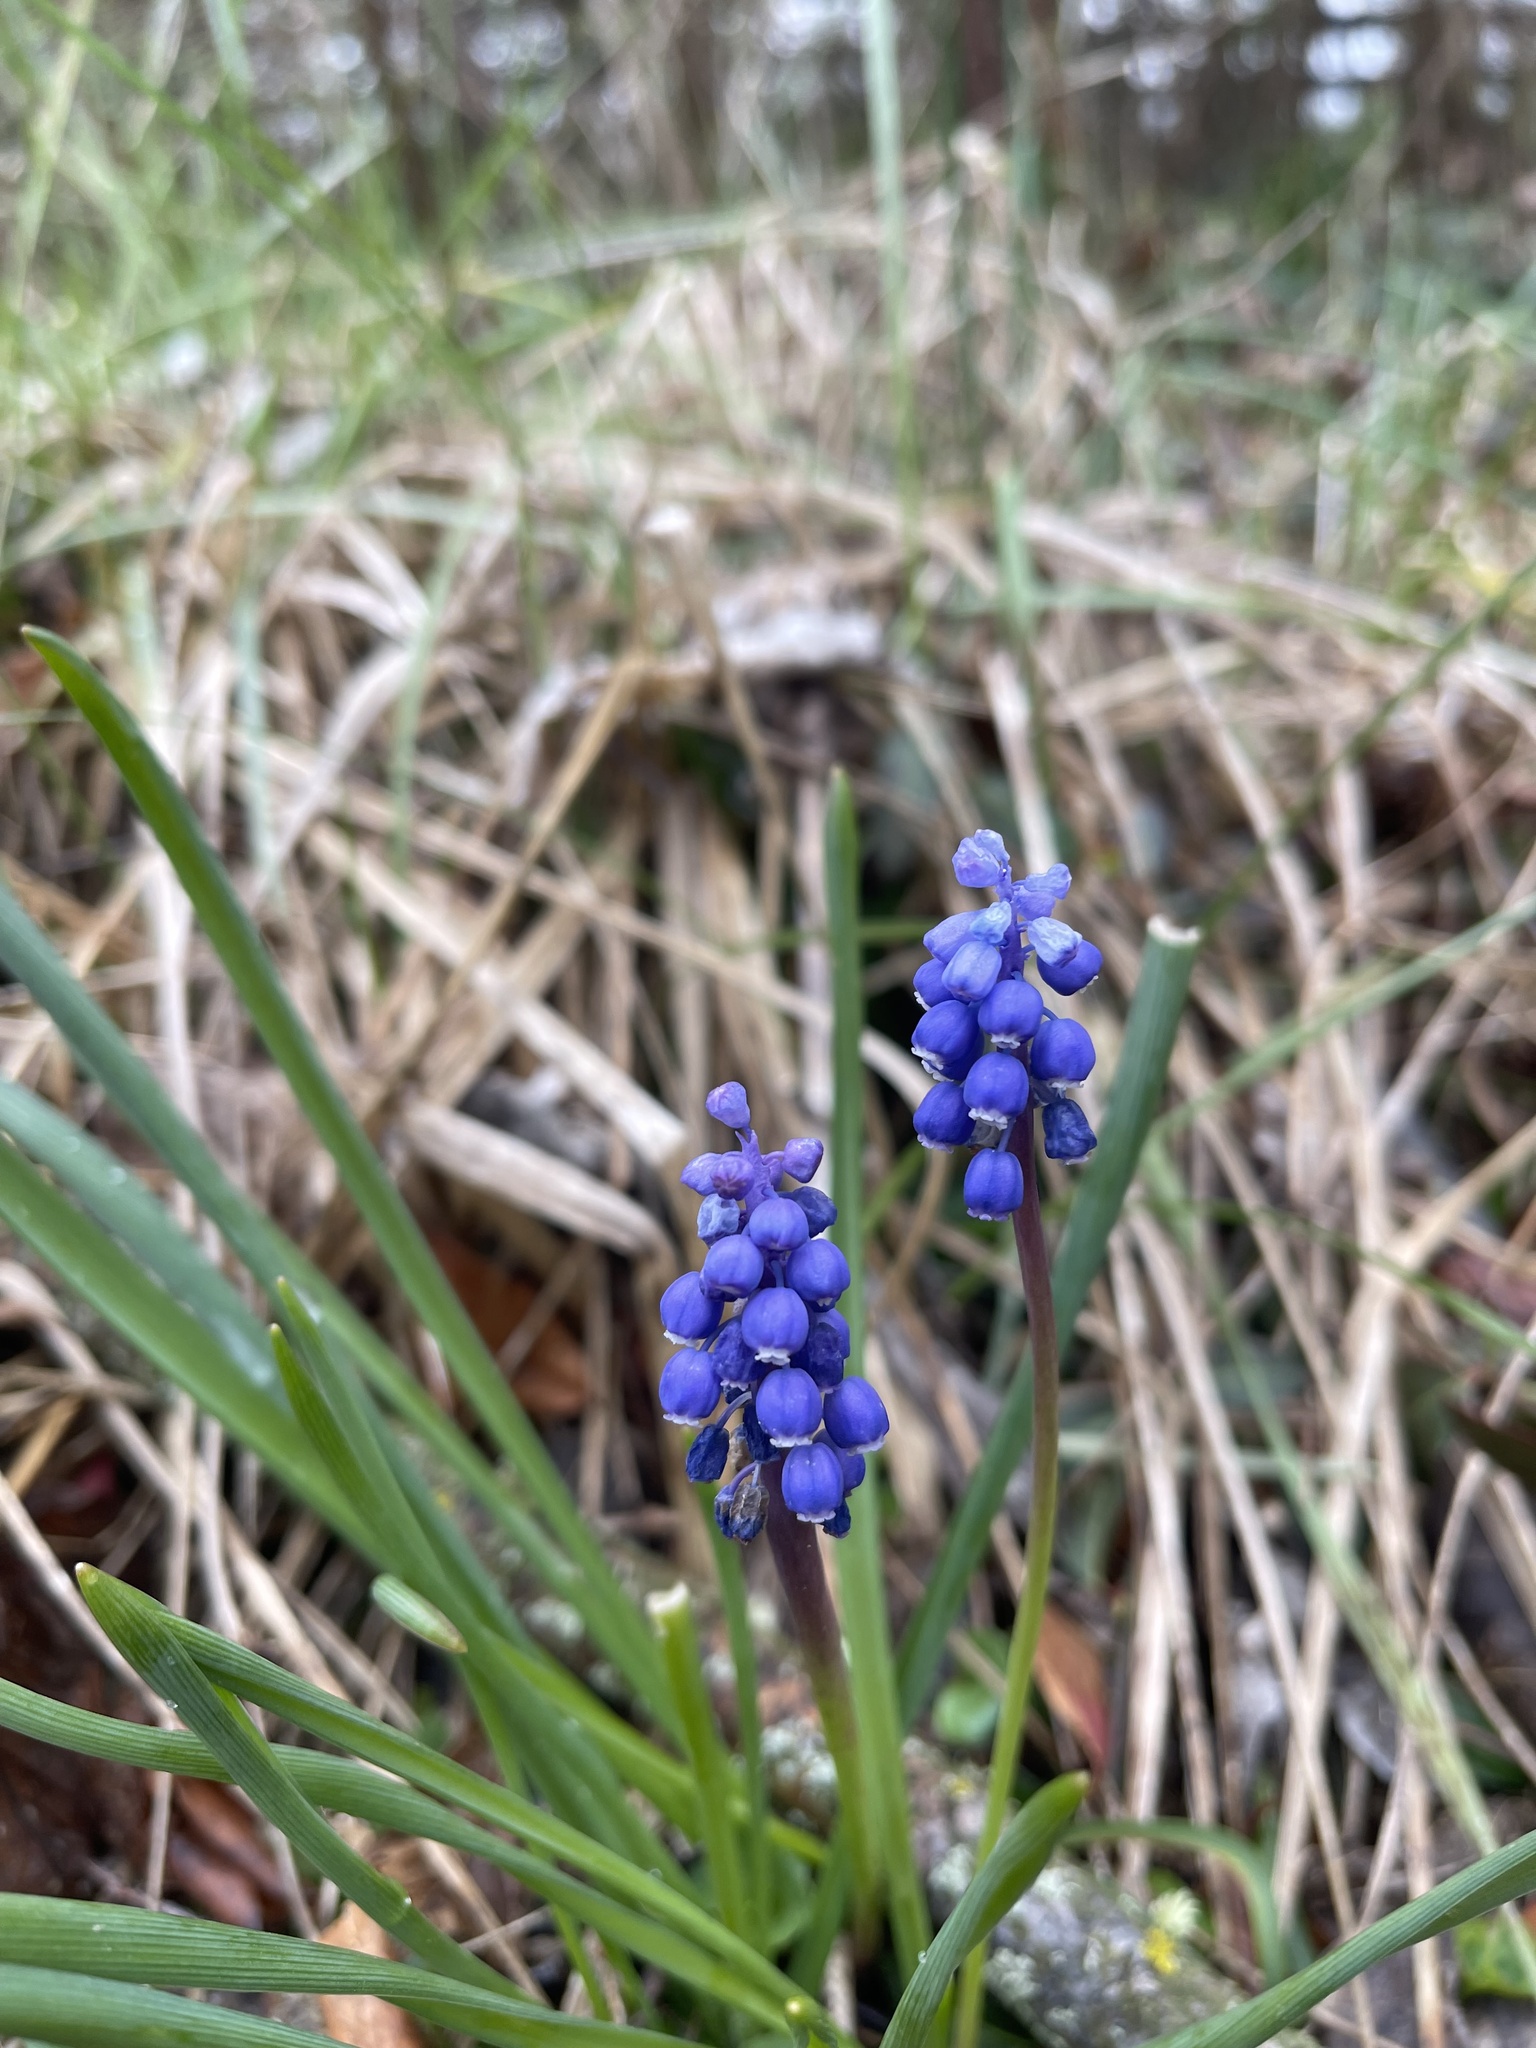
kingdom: Plantae
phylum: Tracheophyta
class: Liliopsida
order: Asparagales
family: Asparagaceae
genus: Muscari
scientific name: Muscari botryoides
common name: Compact grape-hyacinth
